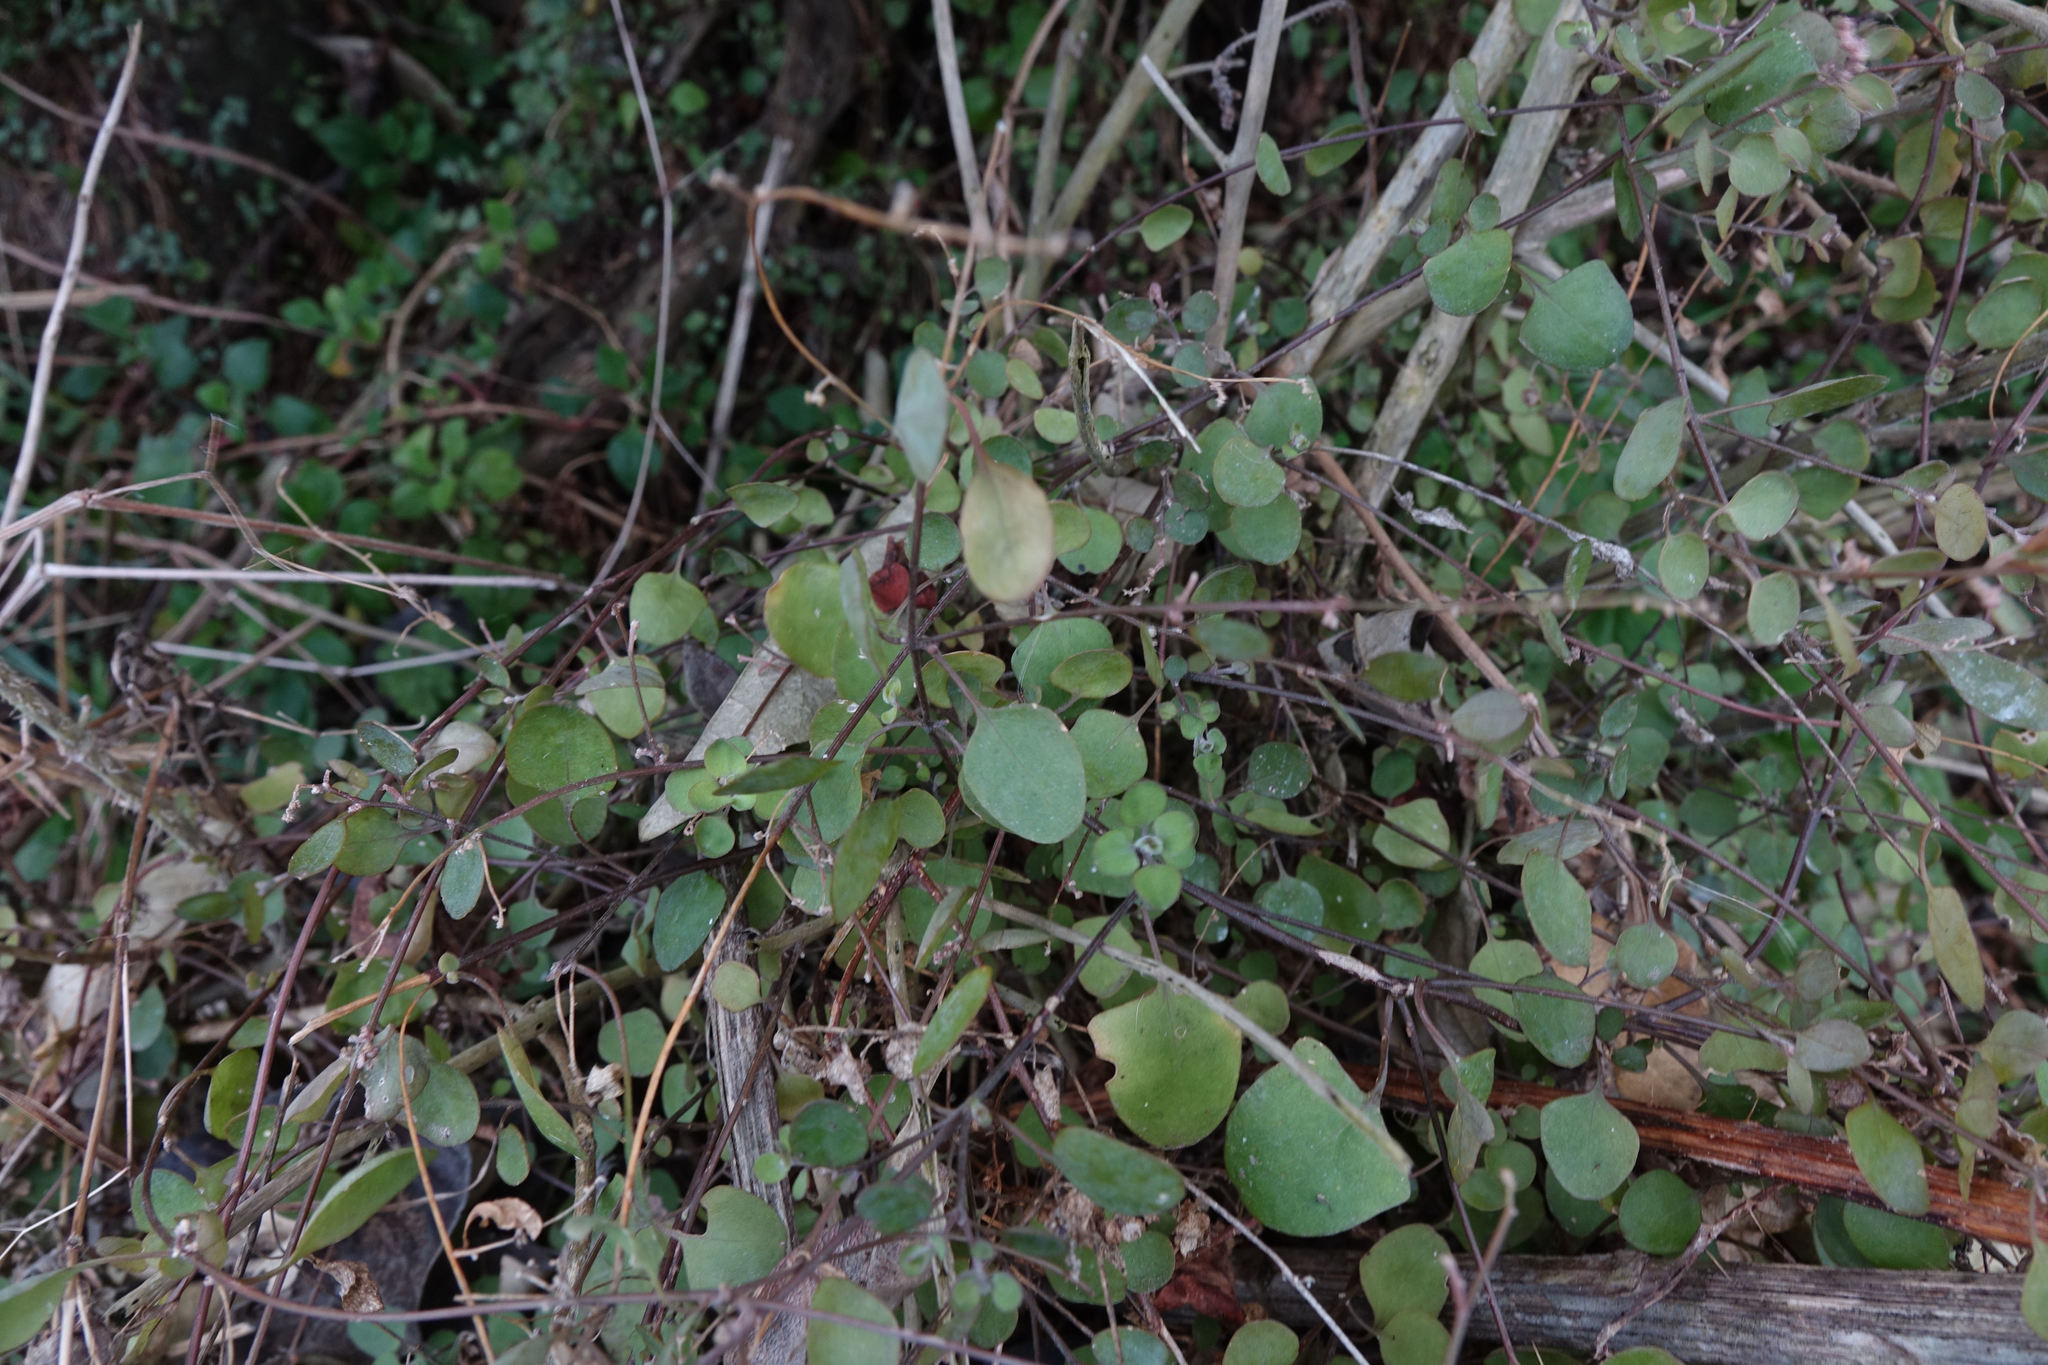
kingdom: Plantae
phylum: Tracheophyta
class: Magnoliopsida
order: Caryophyllales
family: Amaranthaceae
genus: Chenopodium
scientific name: Chenopodium allanii
